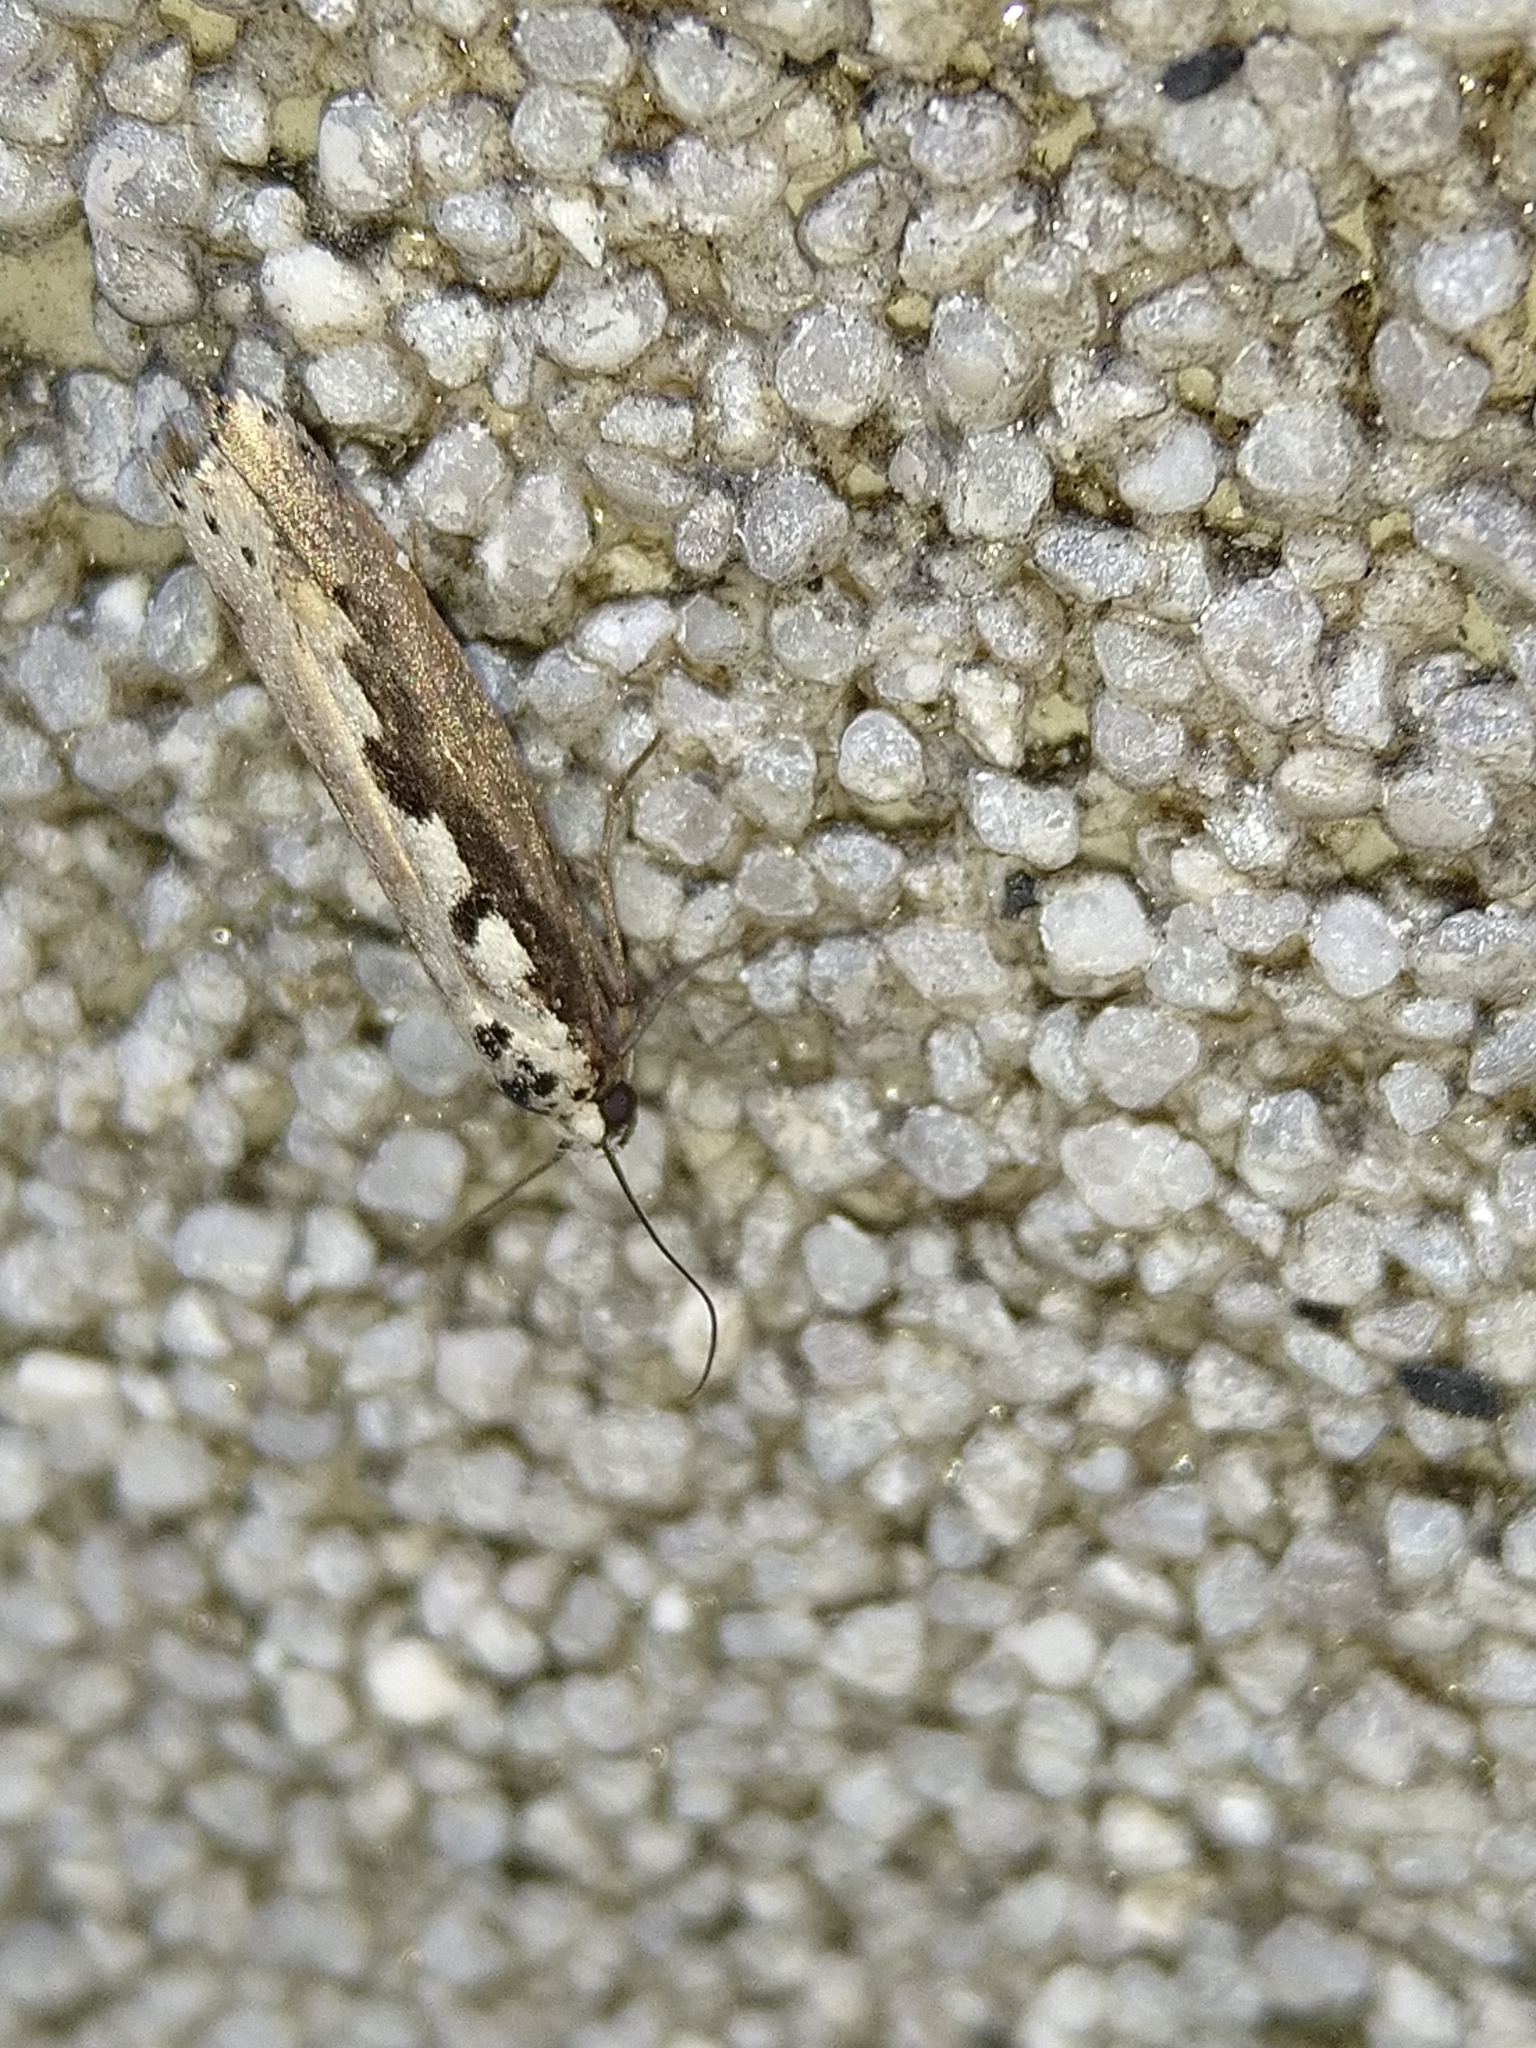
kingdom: Animalia
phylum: Arthropoda
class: Insecta
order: Lepidoptera
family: Ethmiidae
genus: Ethmia
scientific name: Ethmia bipunctella
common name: Bordered ermel
